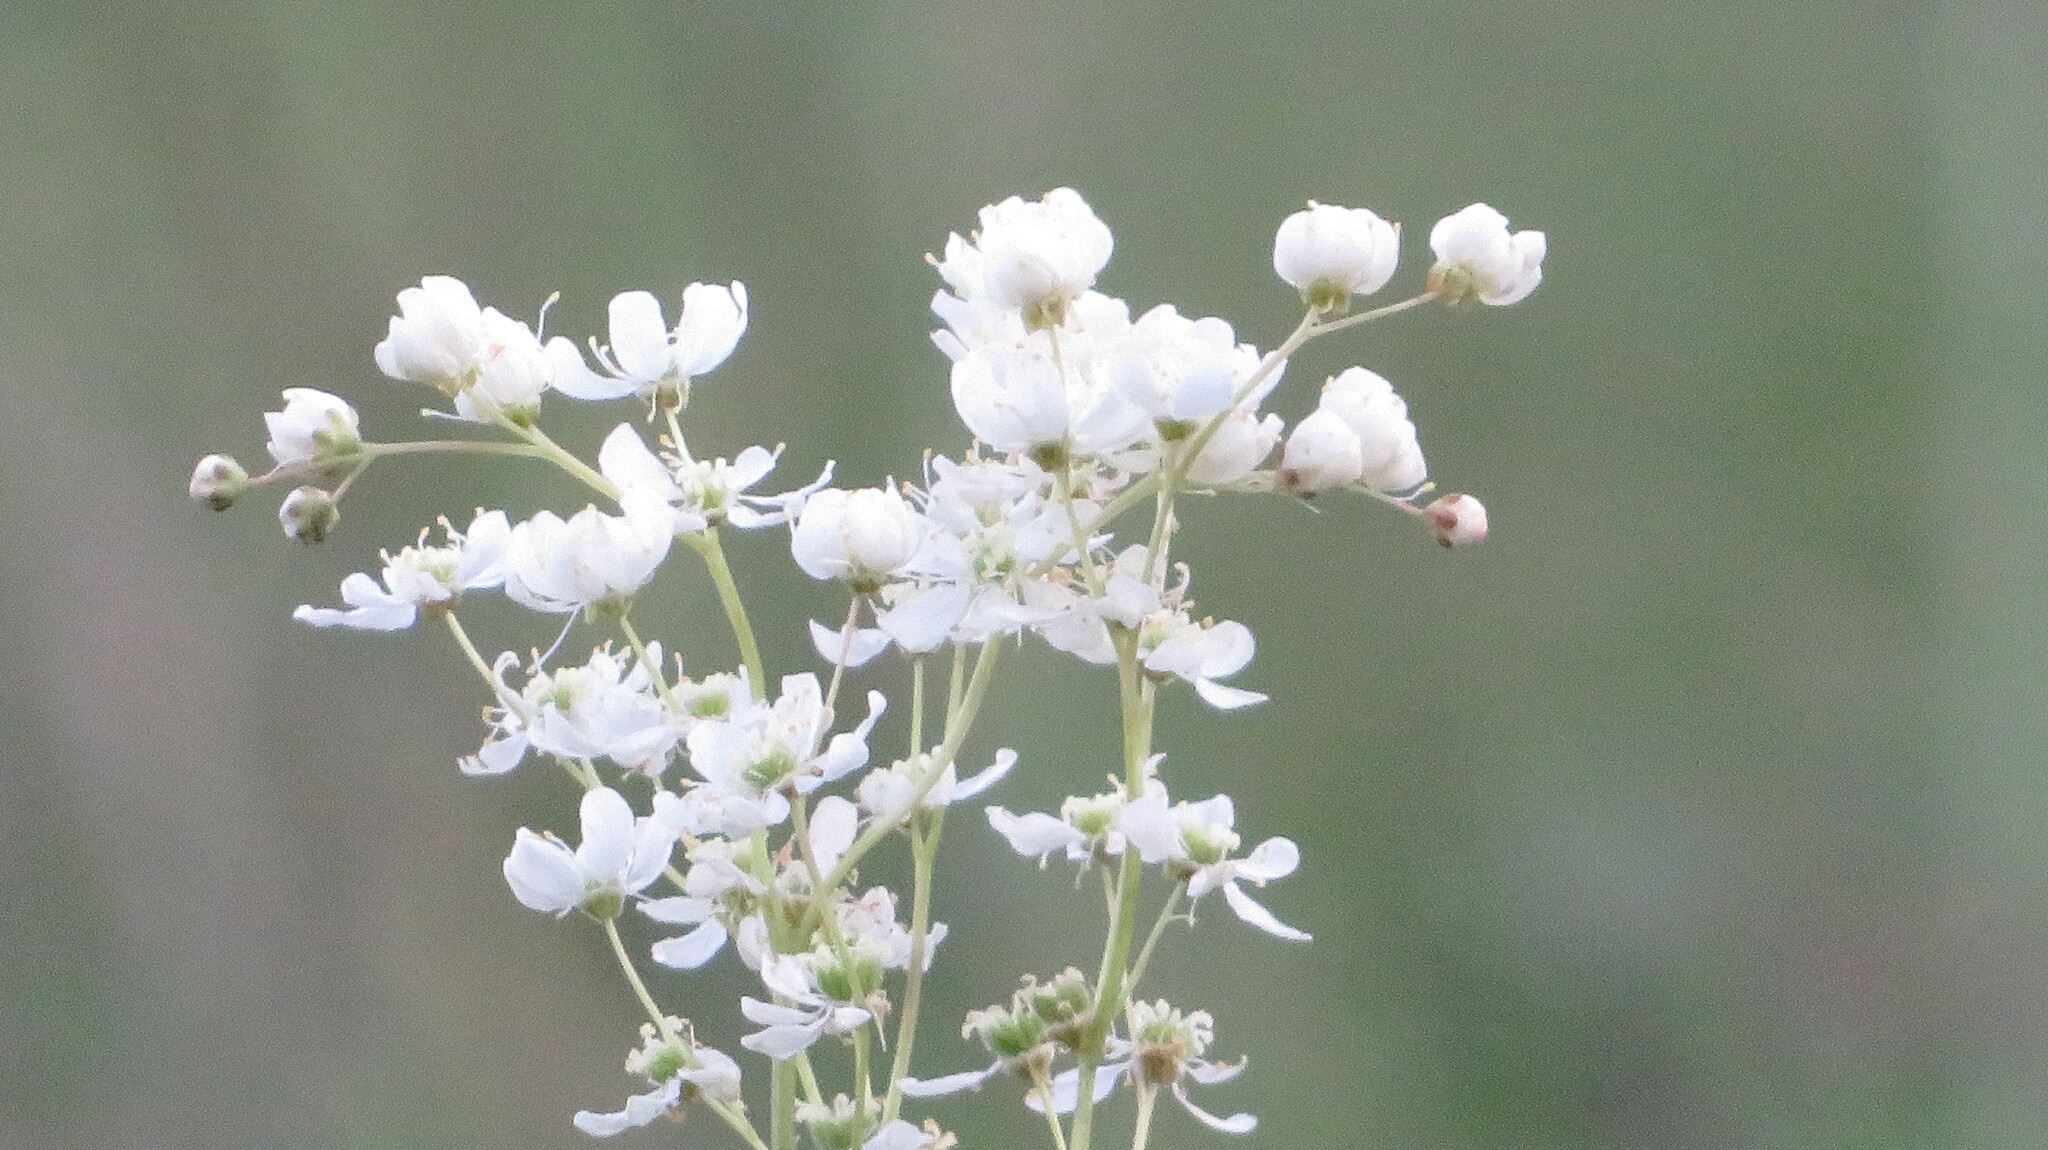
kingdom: Plantae
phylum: Tracheophyta
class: Magnoliopsida
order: Rosales
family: Rosaceae
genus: Filipendula
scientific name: Filipendula vulgaris
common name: Dropwort
